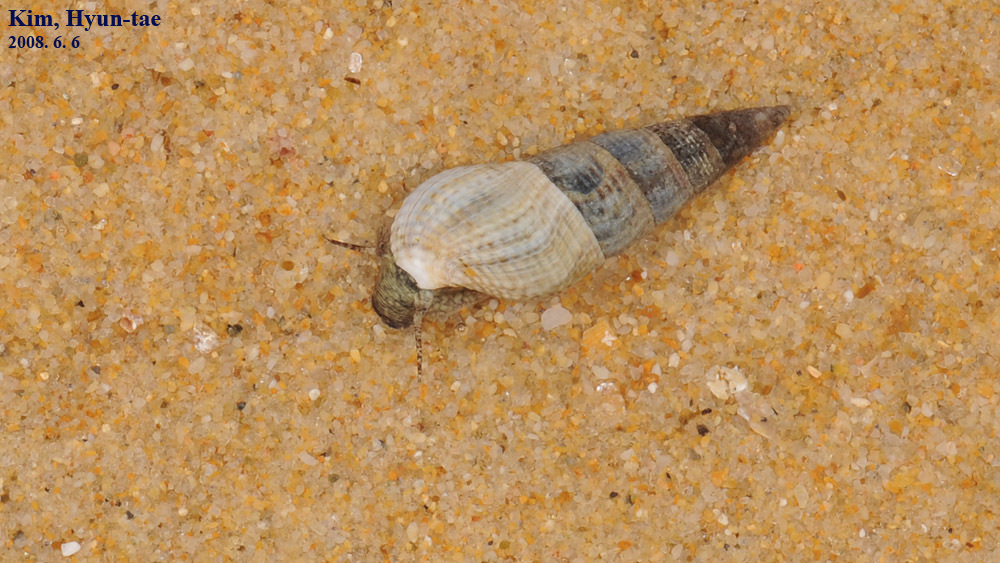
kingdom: Animalia
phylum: Mollusca
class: Gastropoda
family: Batillariidae
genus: Batillaria
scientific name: Batillaria attramentaria
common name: Japanese false cerith
